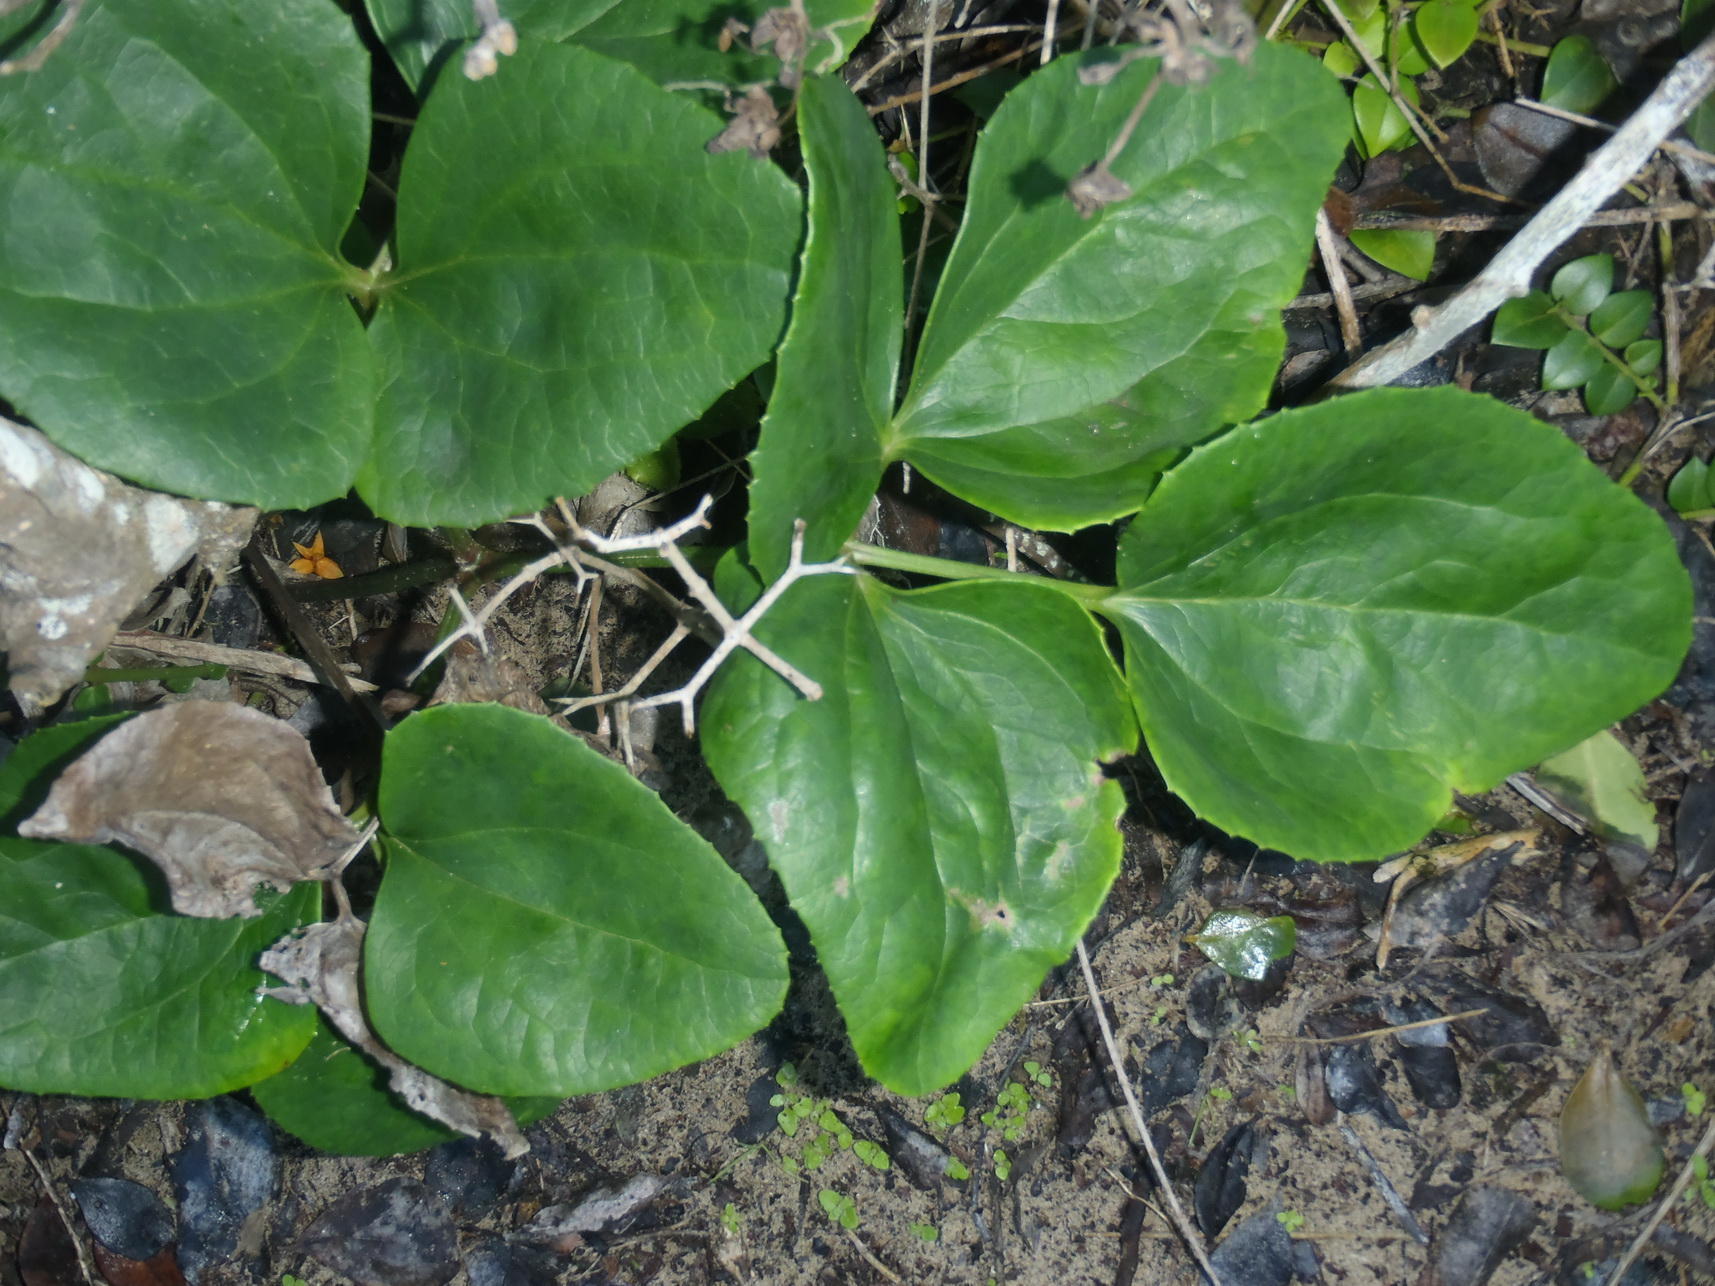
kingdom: Plantae
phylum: Tracheophyta
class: Magnoliopsida
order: Ranunculales
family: Ranunculaceae
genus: Knowltonia
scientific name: Knowltonia vesicatoria
